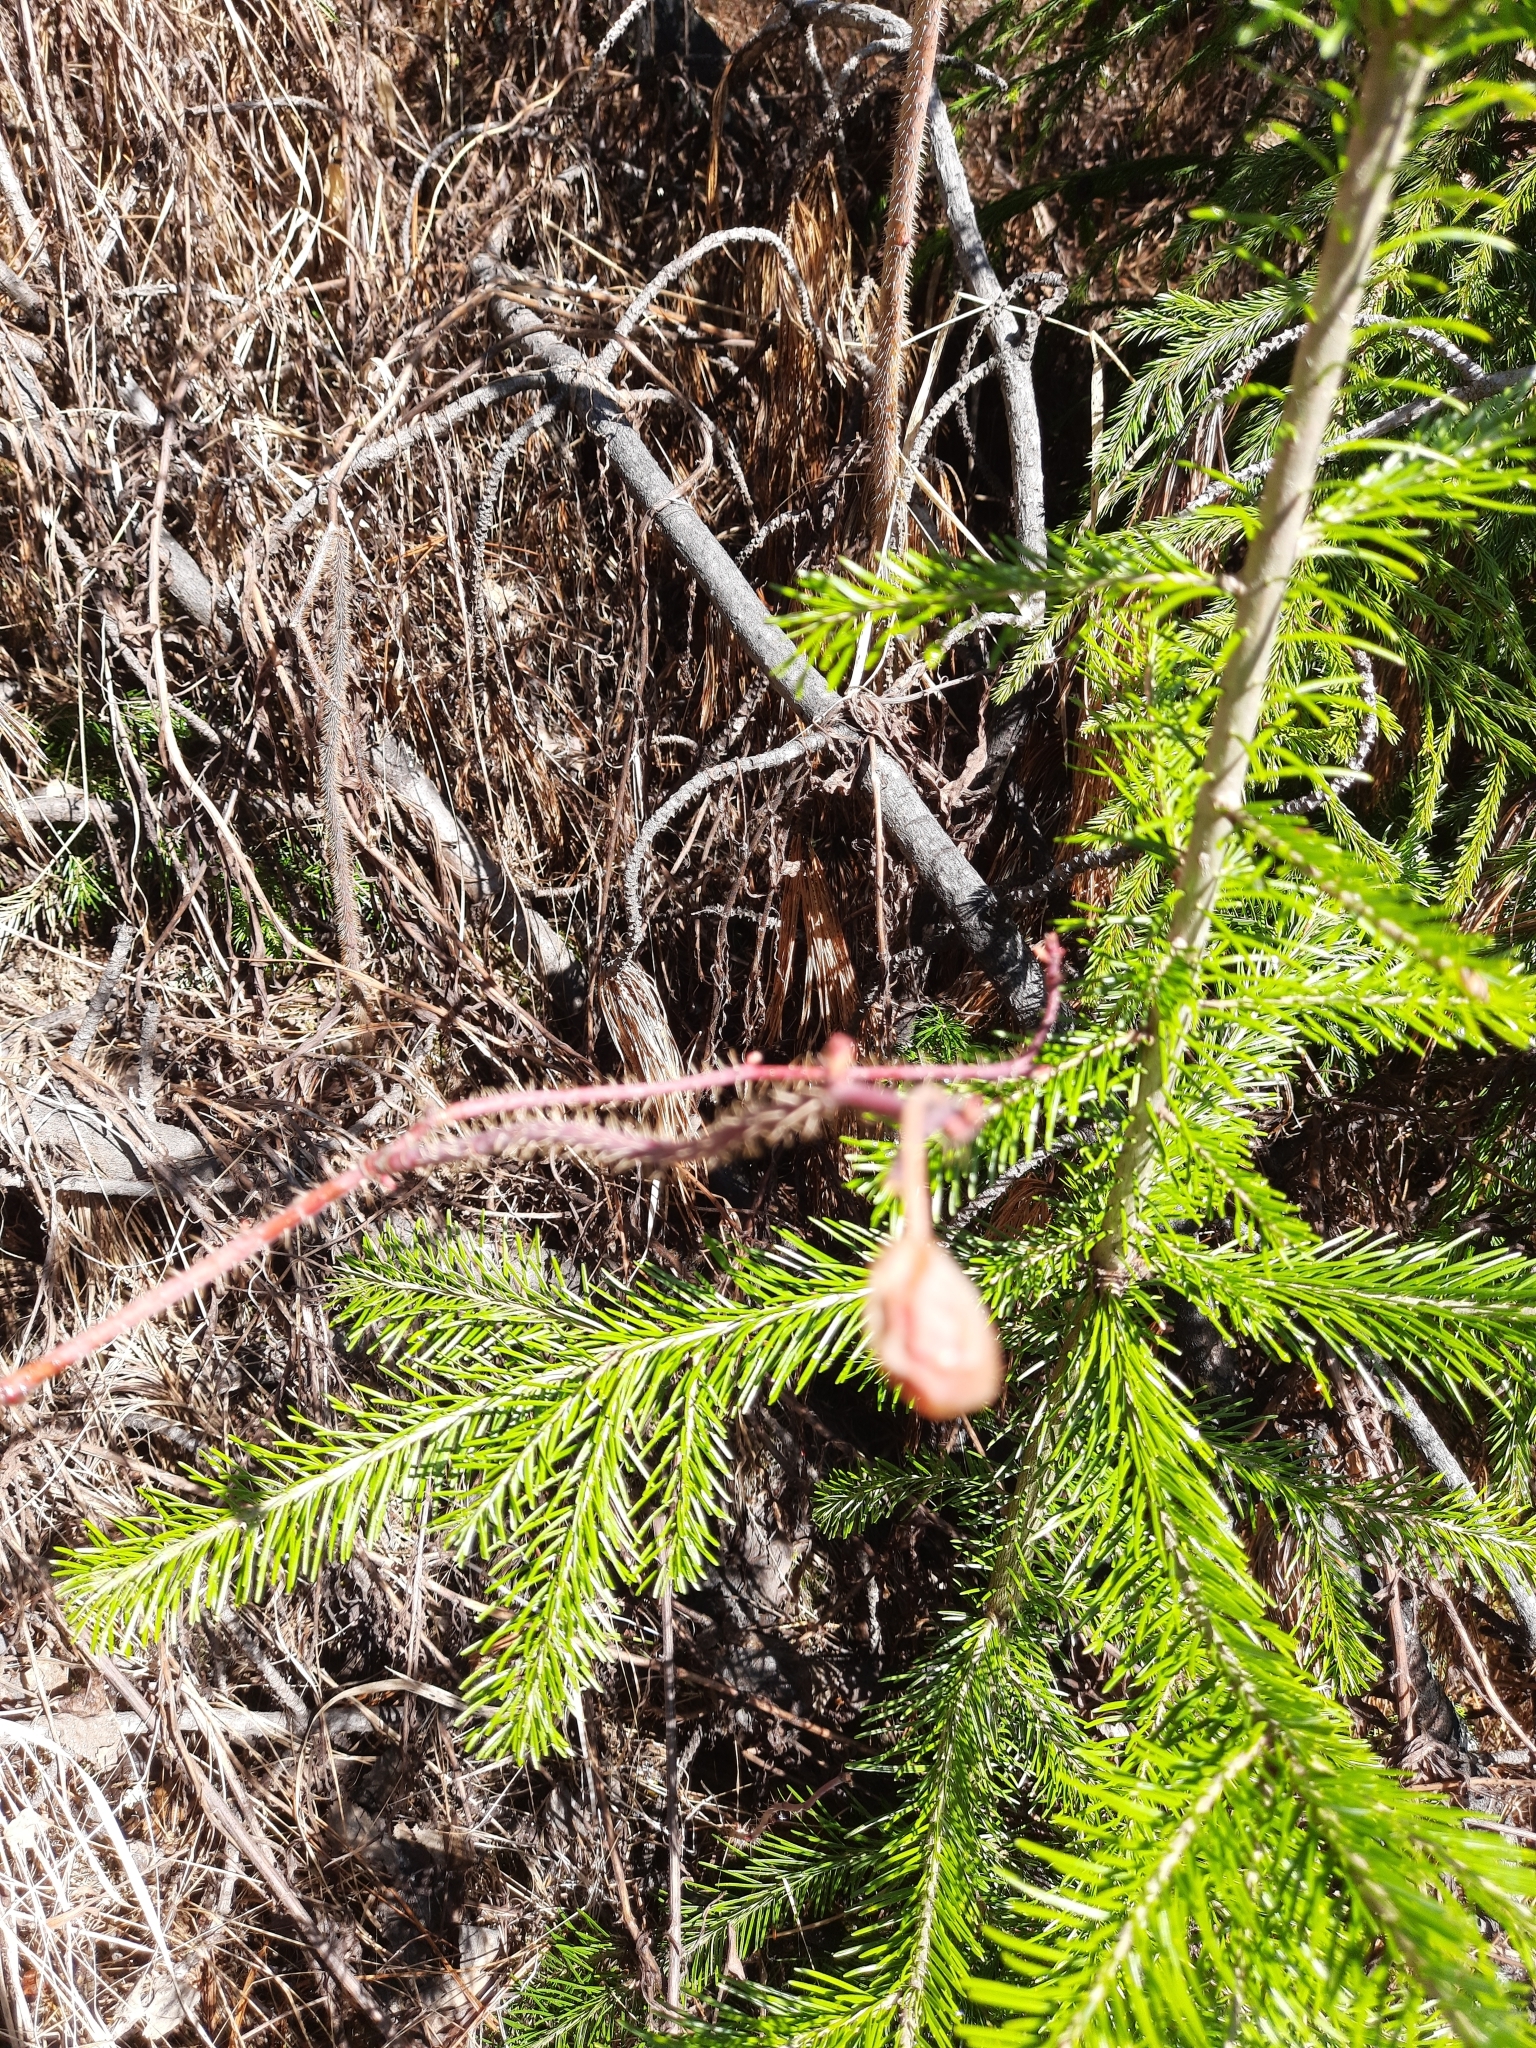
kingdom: Plantae
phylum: Tracheophyta
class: Magnoliopsida
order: Rosales
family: Rosaceae
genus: Rosa
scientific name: Rosa acicularis
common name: Prickly rose
